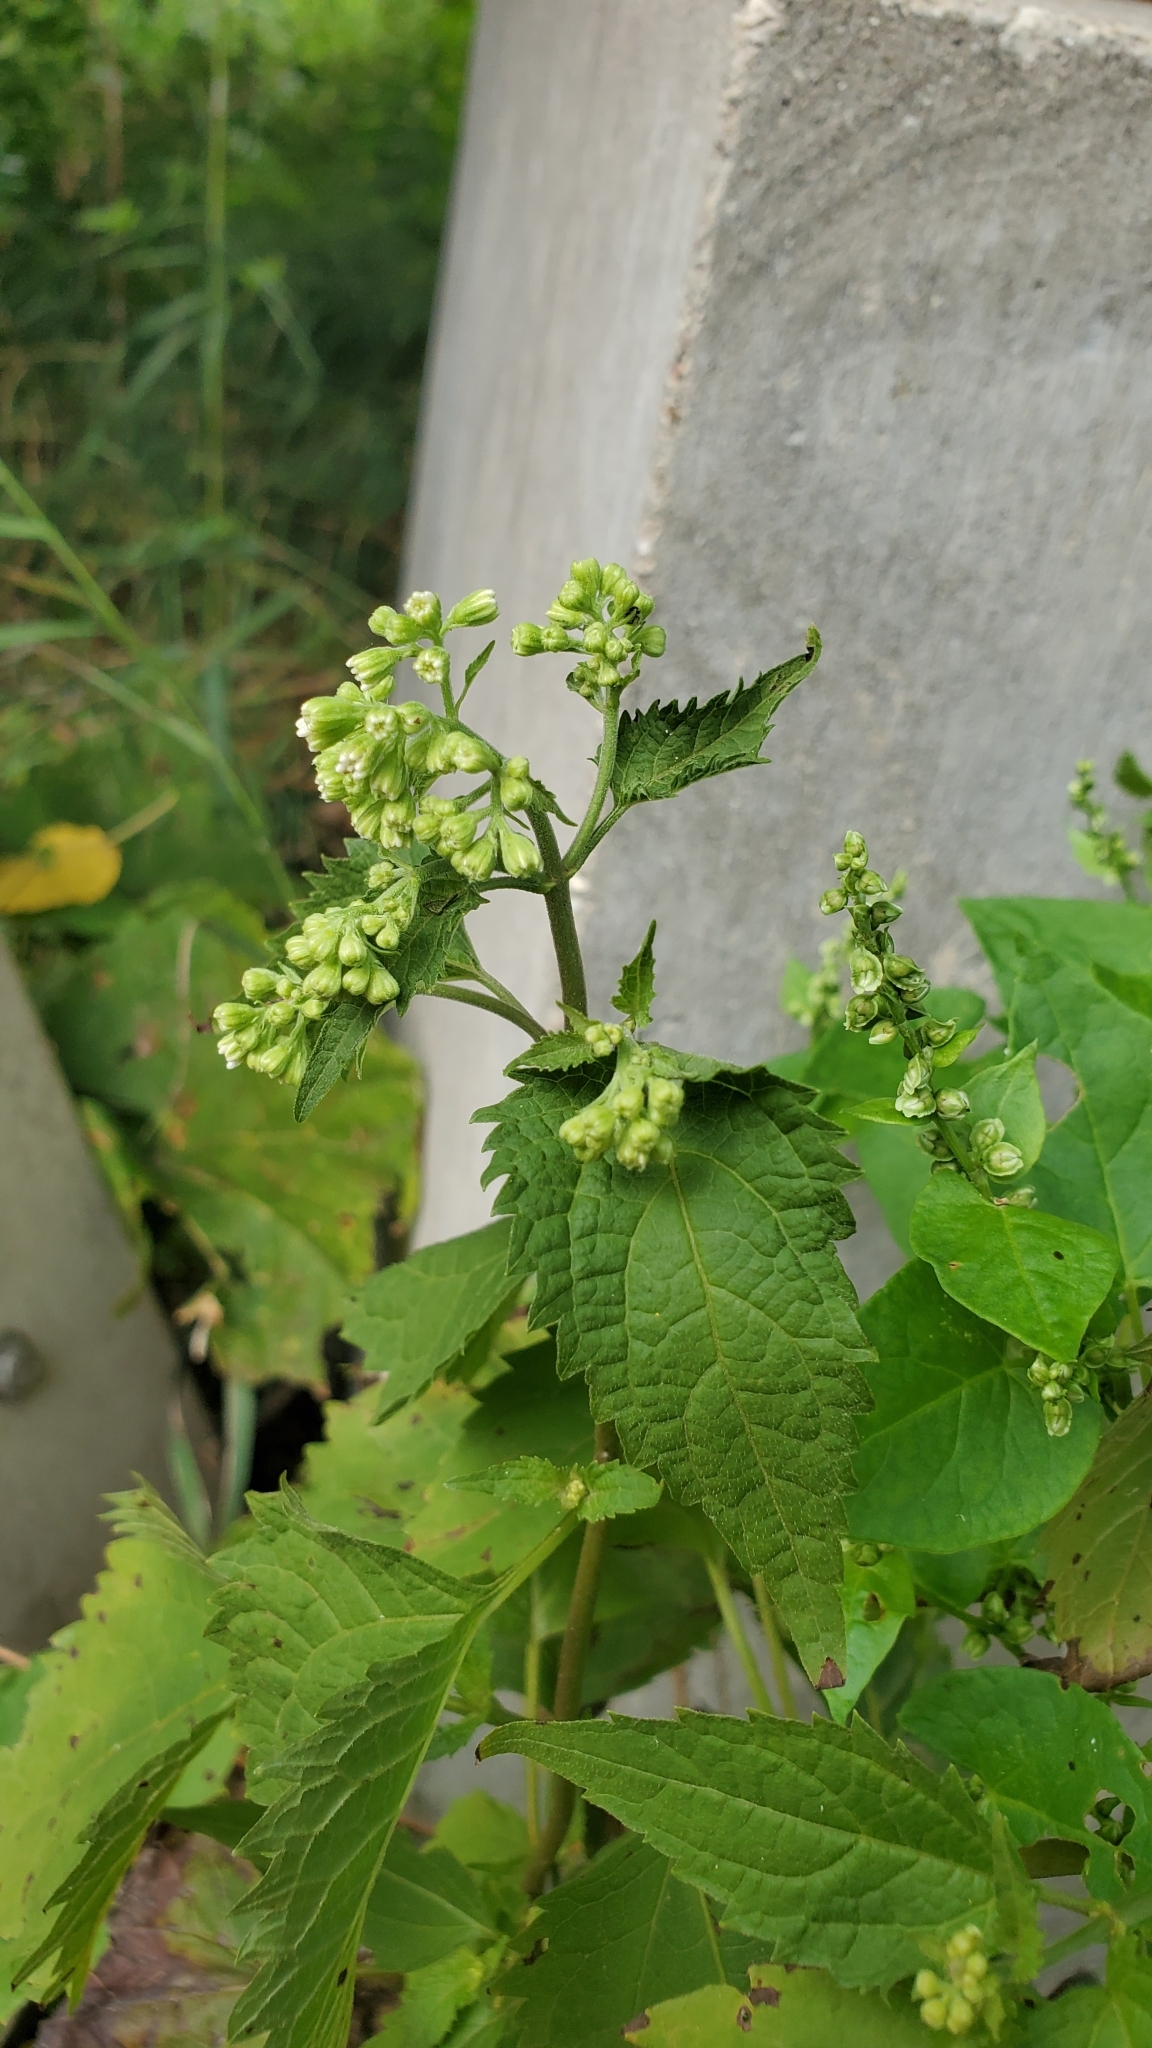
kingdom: Plantae
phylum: Tracheophyta
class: Magnoliopsida
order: Asterales
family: Asteraceae
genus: Ageratina
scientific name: Ageratina altissima
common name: White snakeroot
